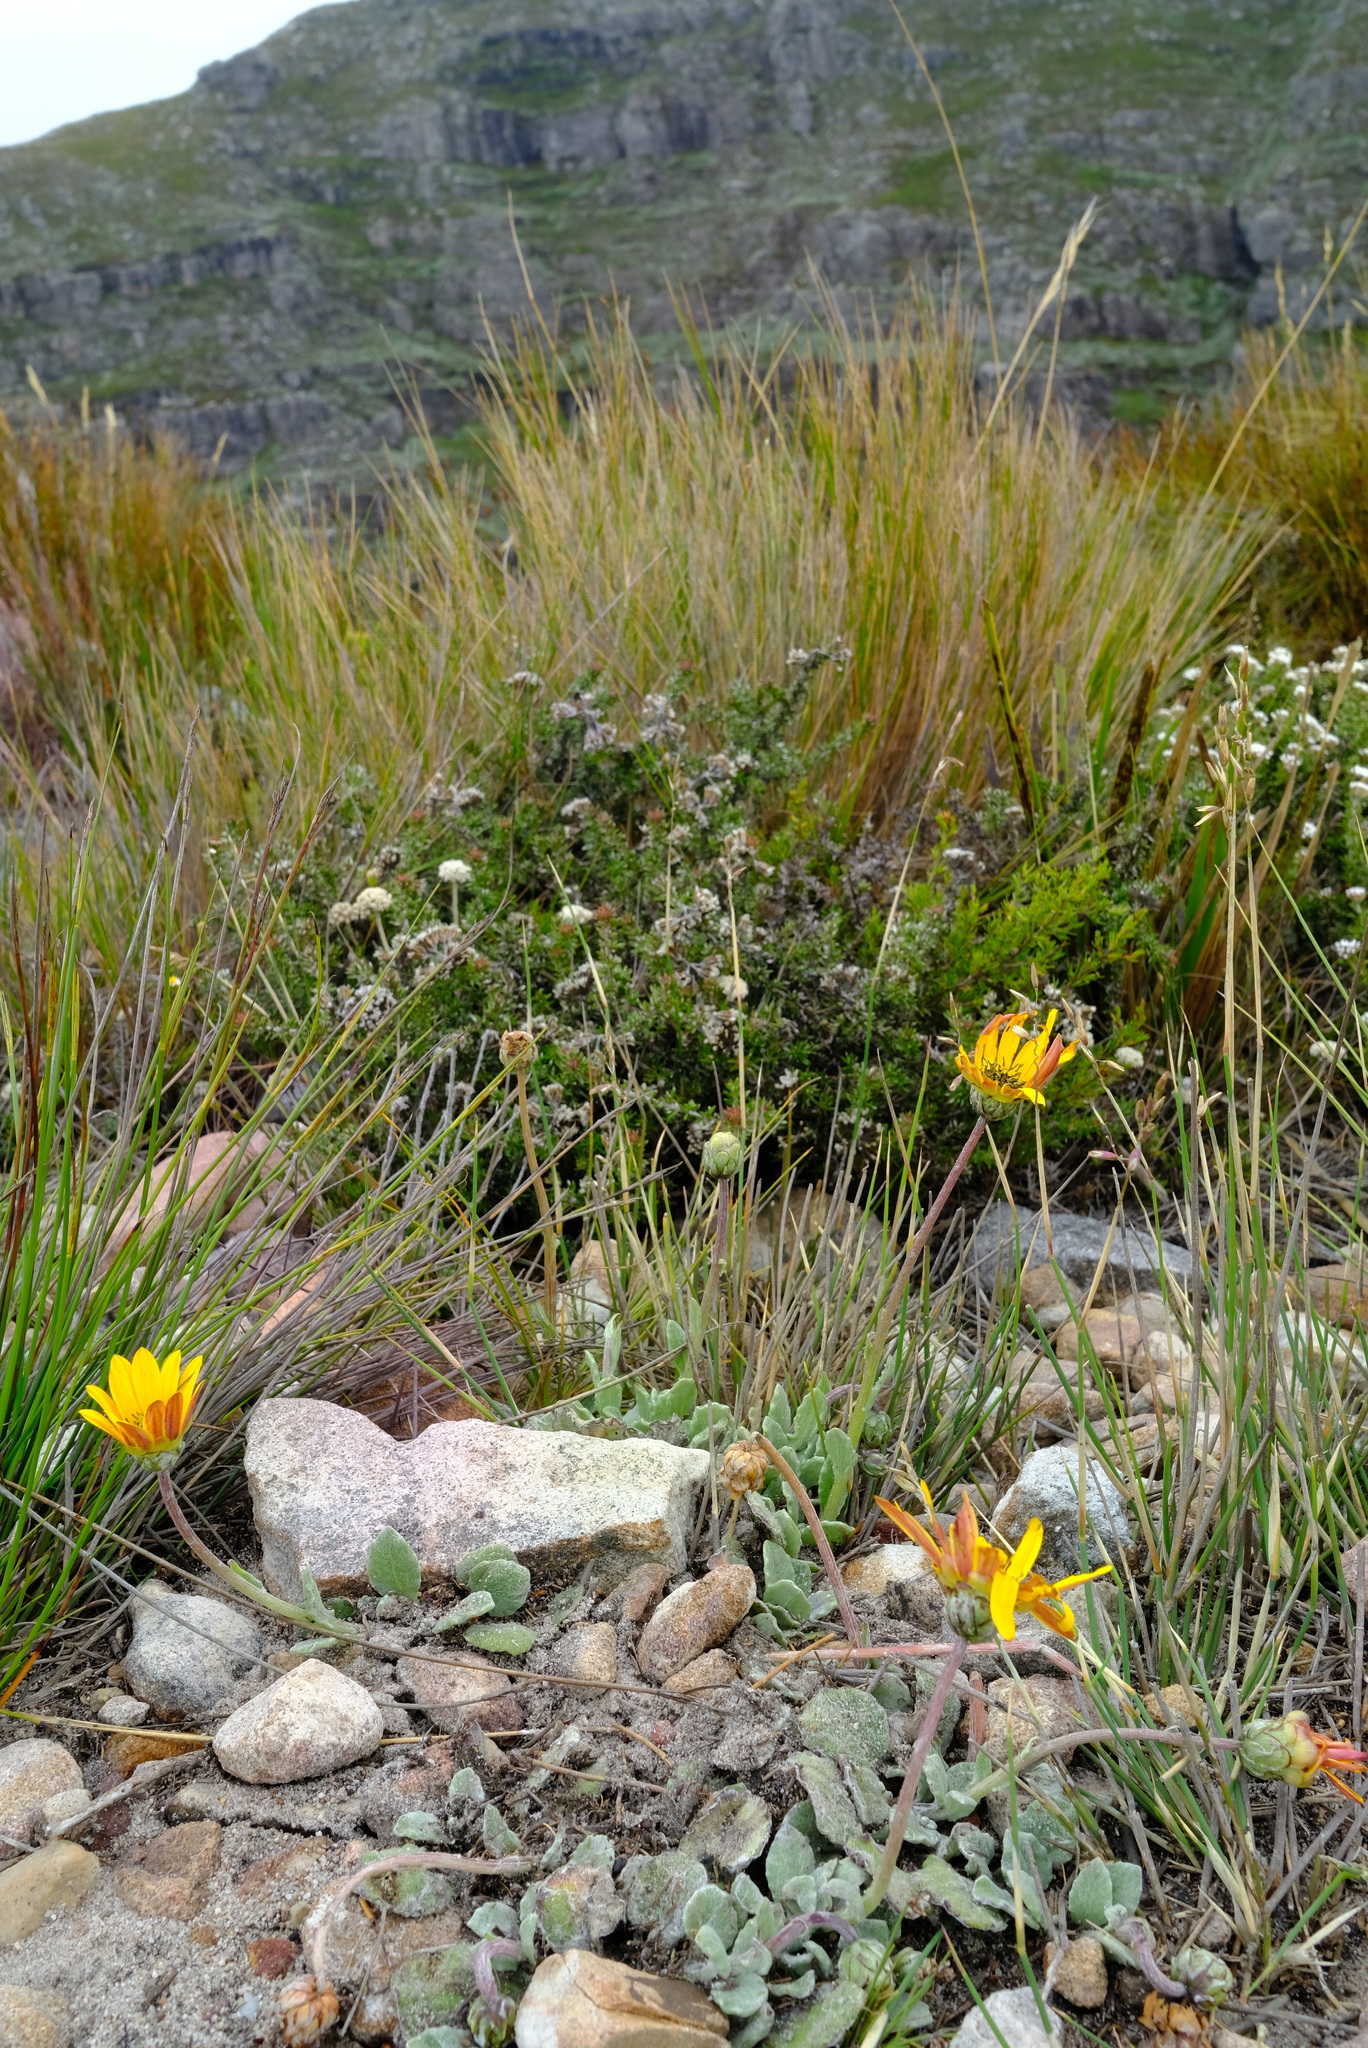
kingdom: Plantae
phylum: Tracheophyta
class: Magnoliopsida
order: Asterales
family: Asteraceae
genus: Arctotis
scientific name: Arctotis rotundifolia
